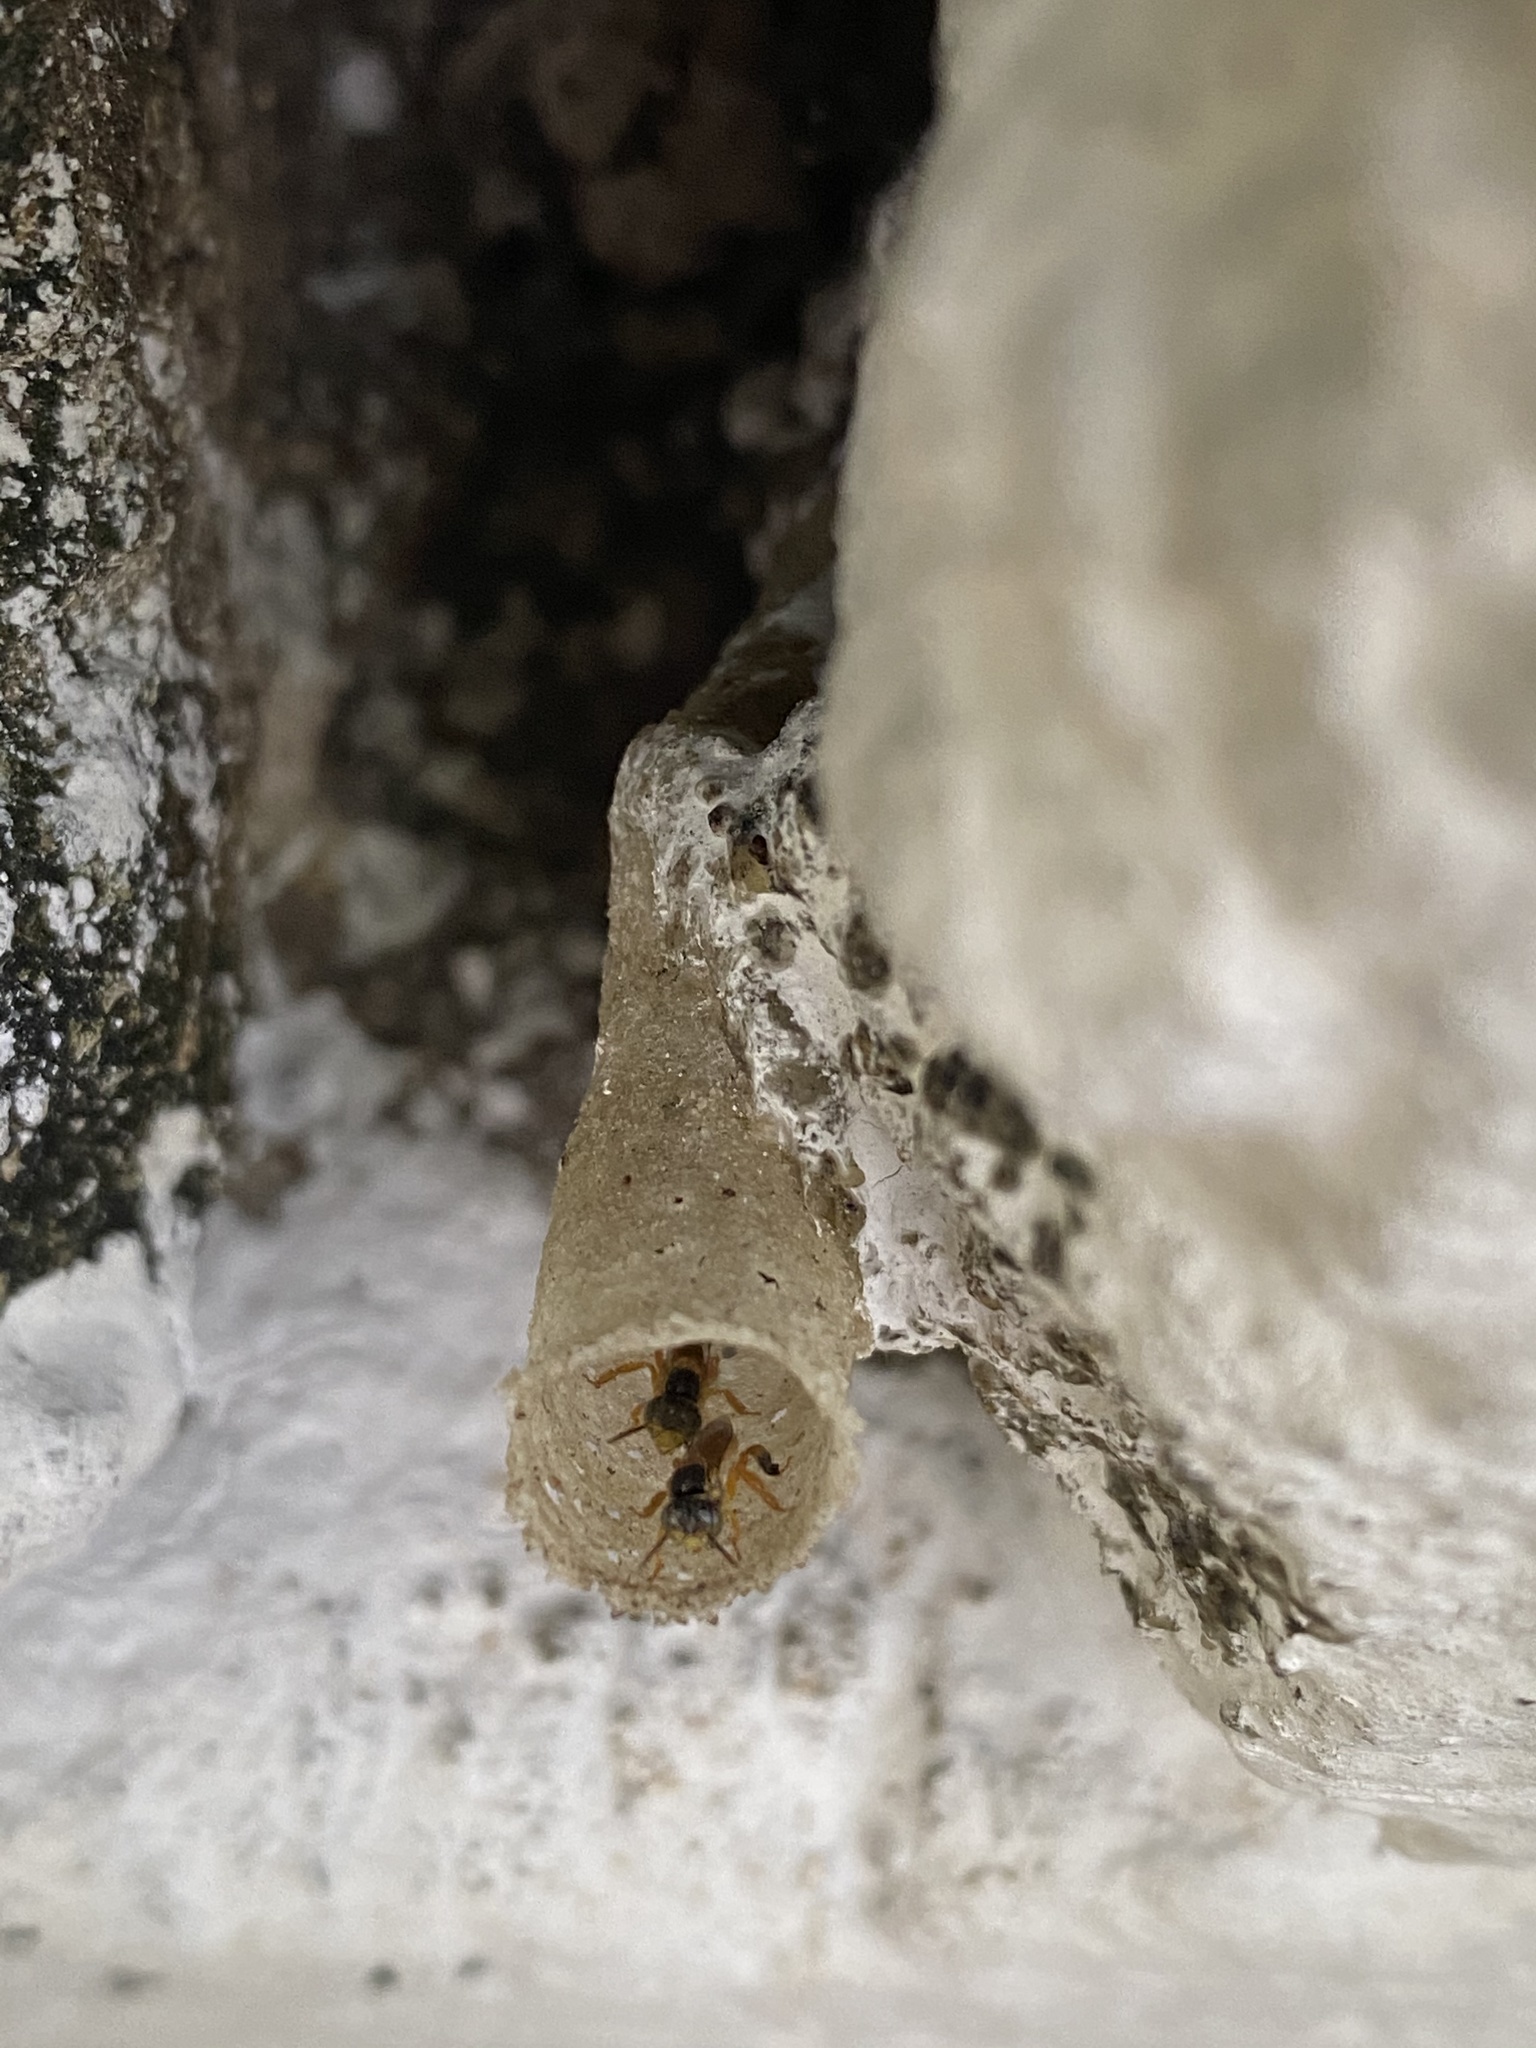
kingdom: Animalia
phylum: Arthropoda
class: Insecta
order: Hymenoptera
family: Apidae
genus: Tetragonisca
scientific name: Tetragonisca angustula
